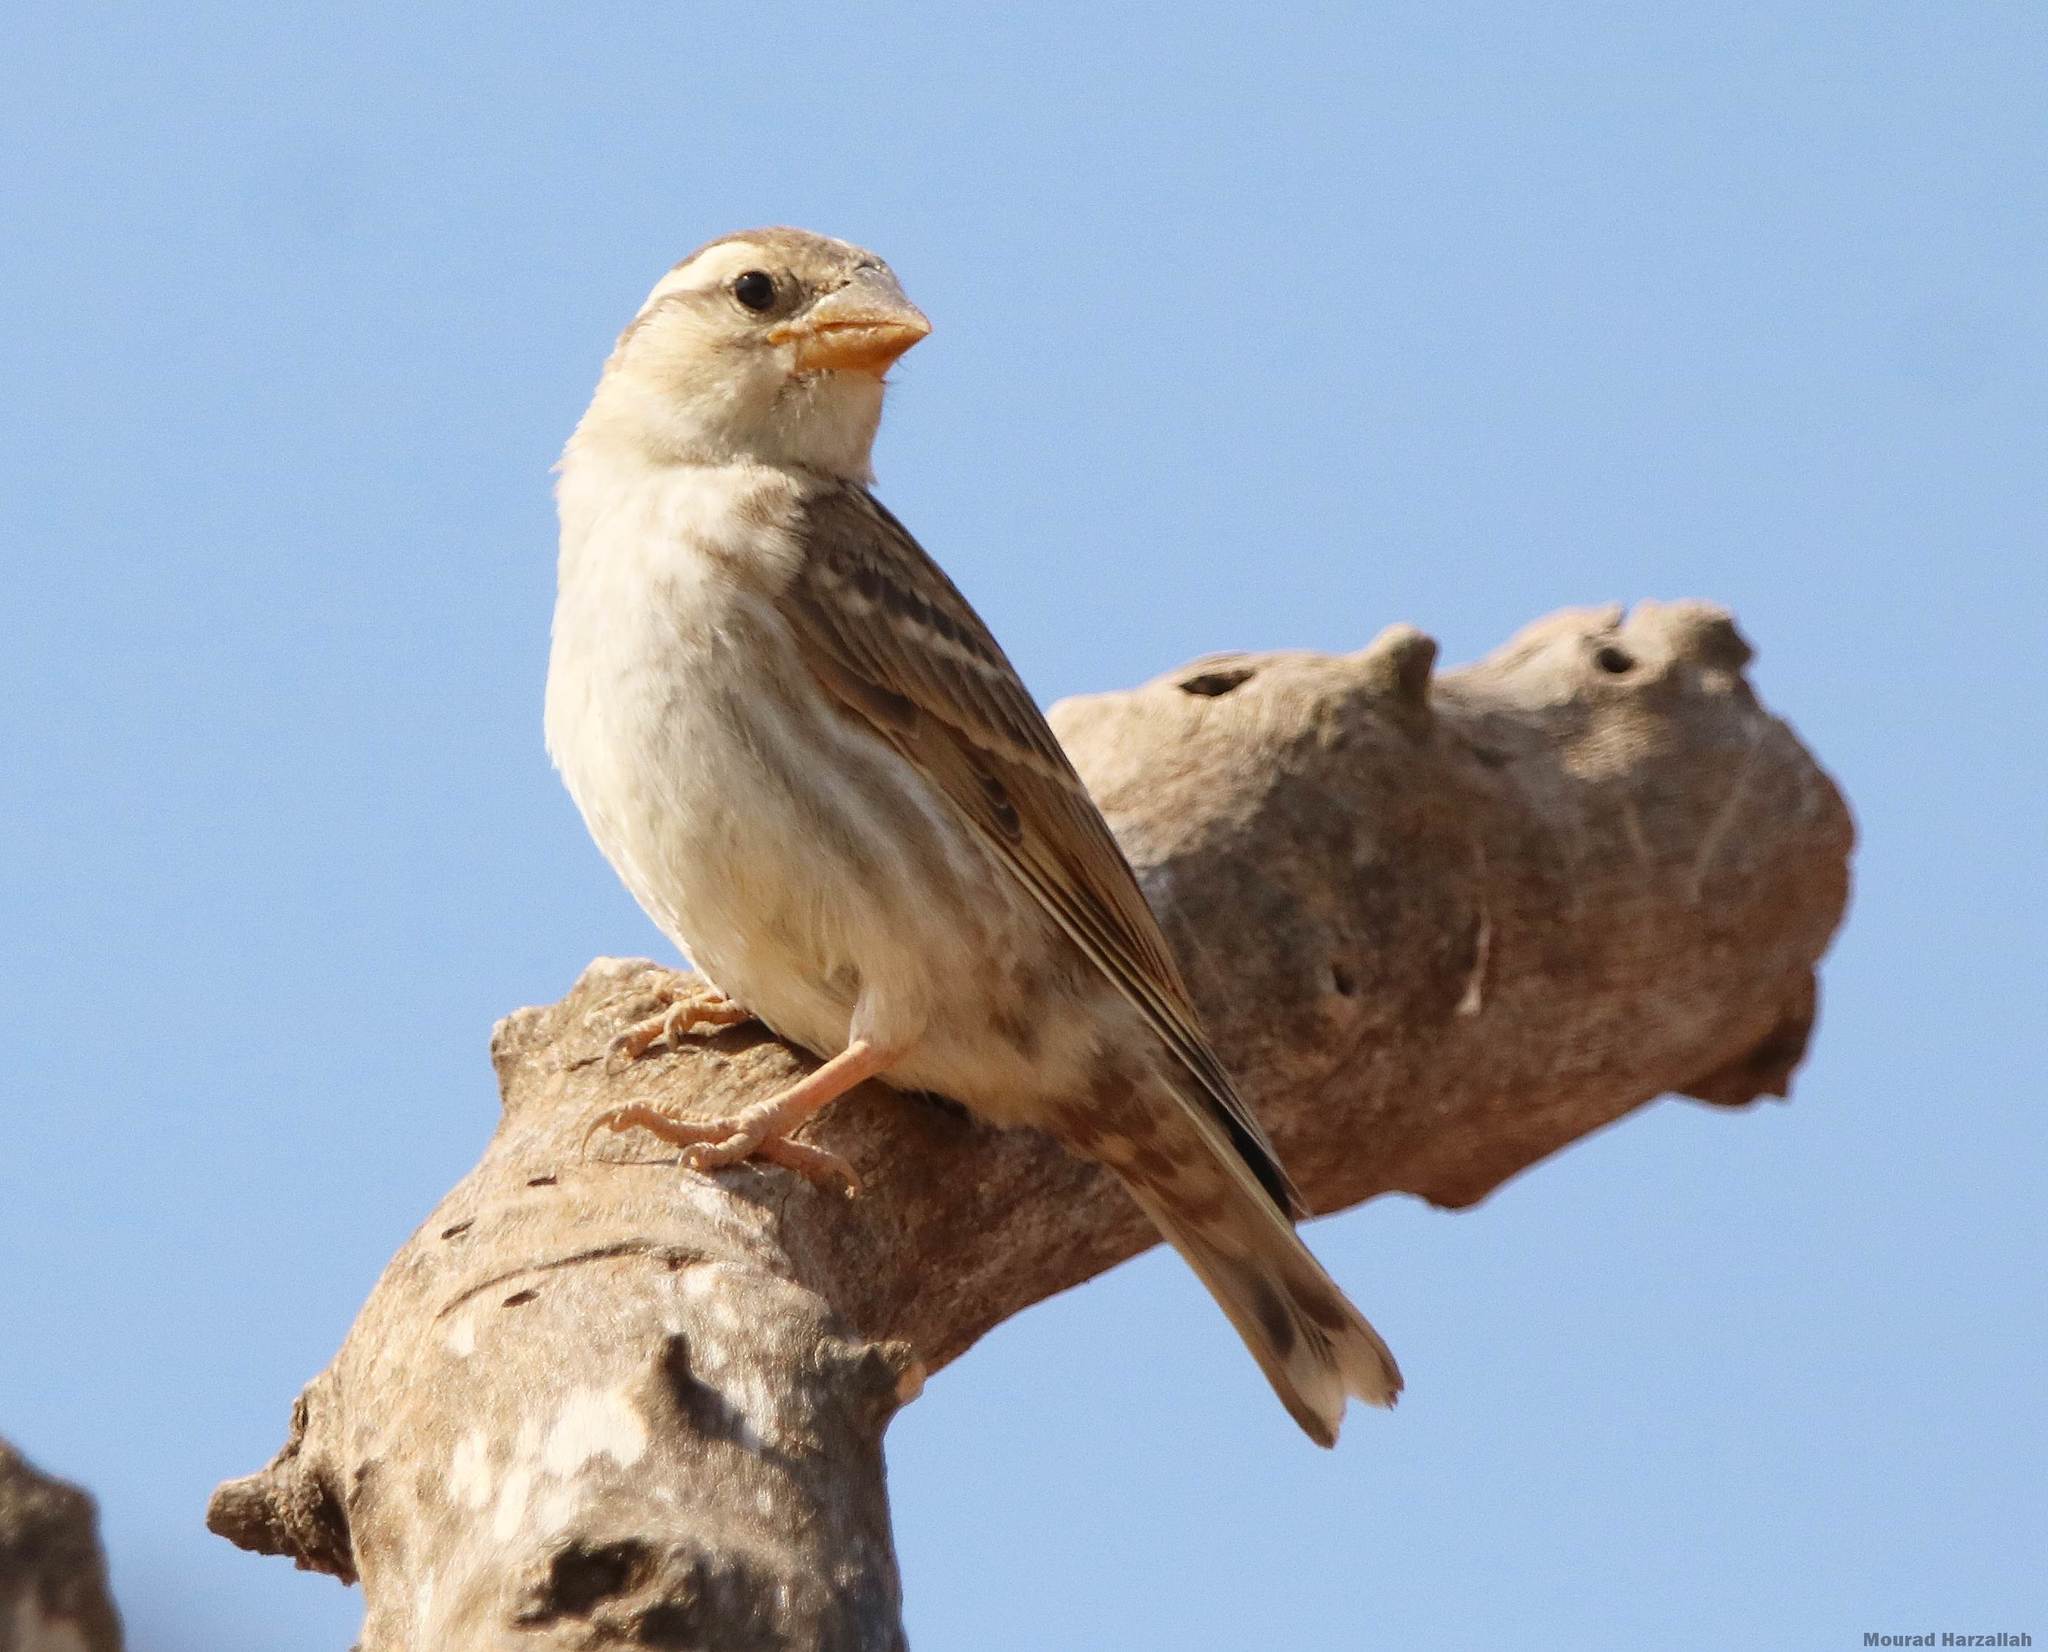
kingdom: Animalia
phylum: Chordata
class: Aves
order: Passeriformes
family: Passeridae
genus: Petronia
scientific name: Petronia petronia
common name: Rock sparrow
